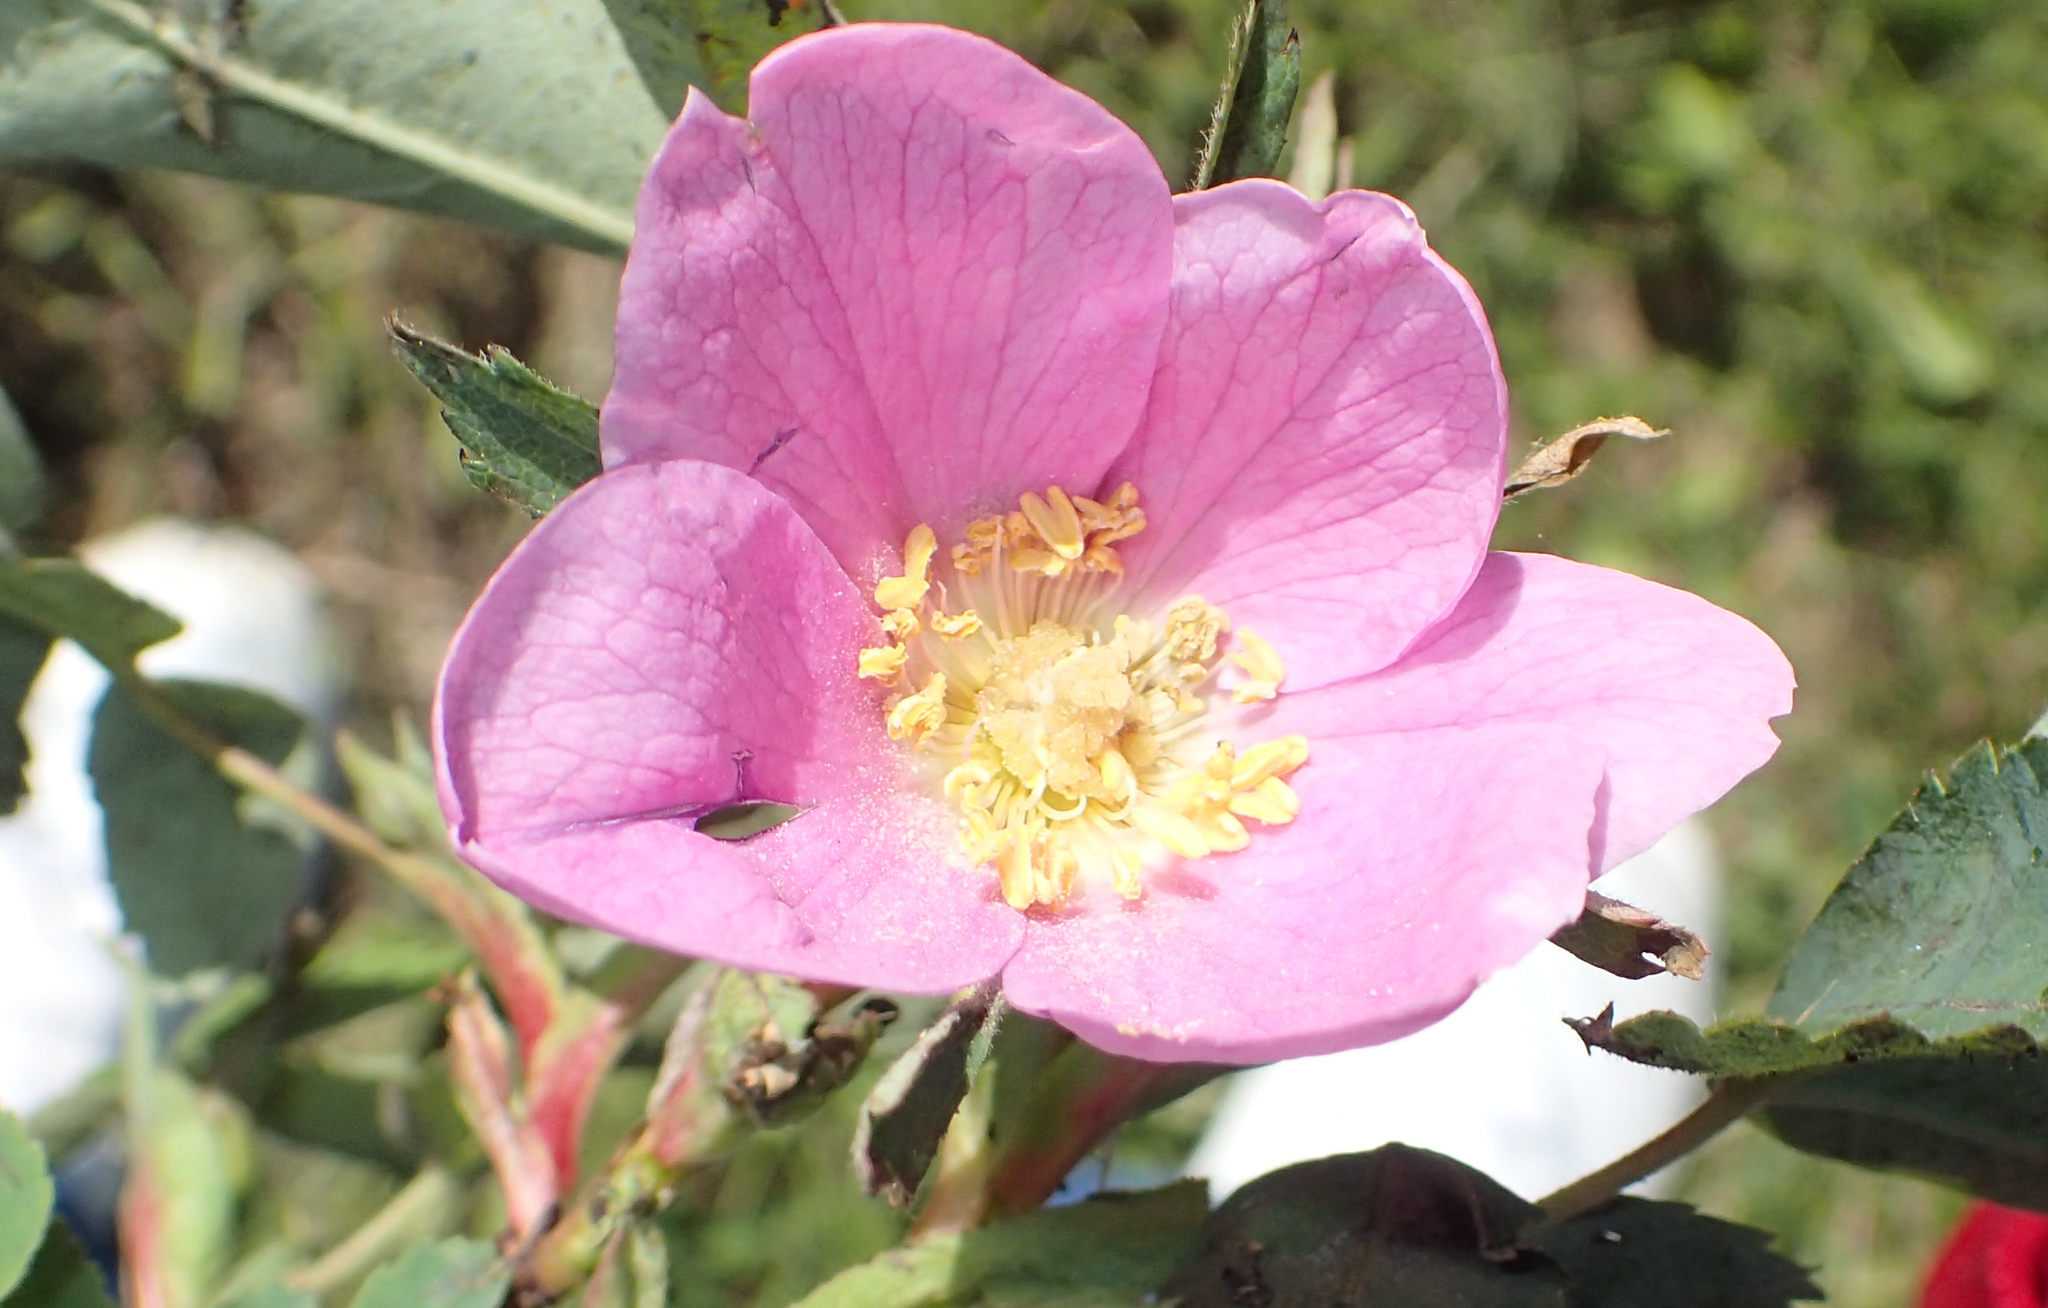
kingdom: Plantae
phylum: Tracheophyta
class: Magnoliopsida
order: Rosales
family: Rosaceae
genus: Rosa
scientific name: Rosa acicularis
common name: Prickly rose
